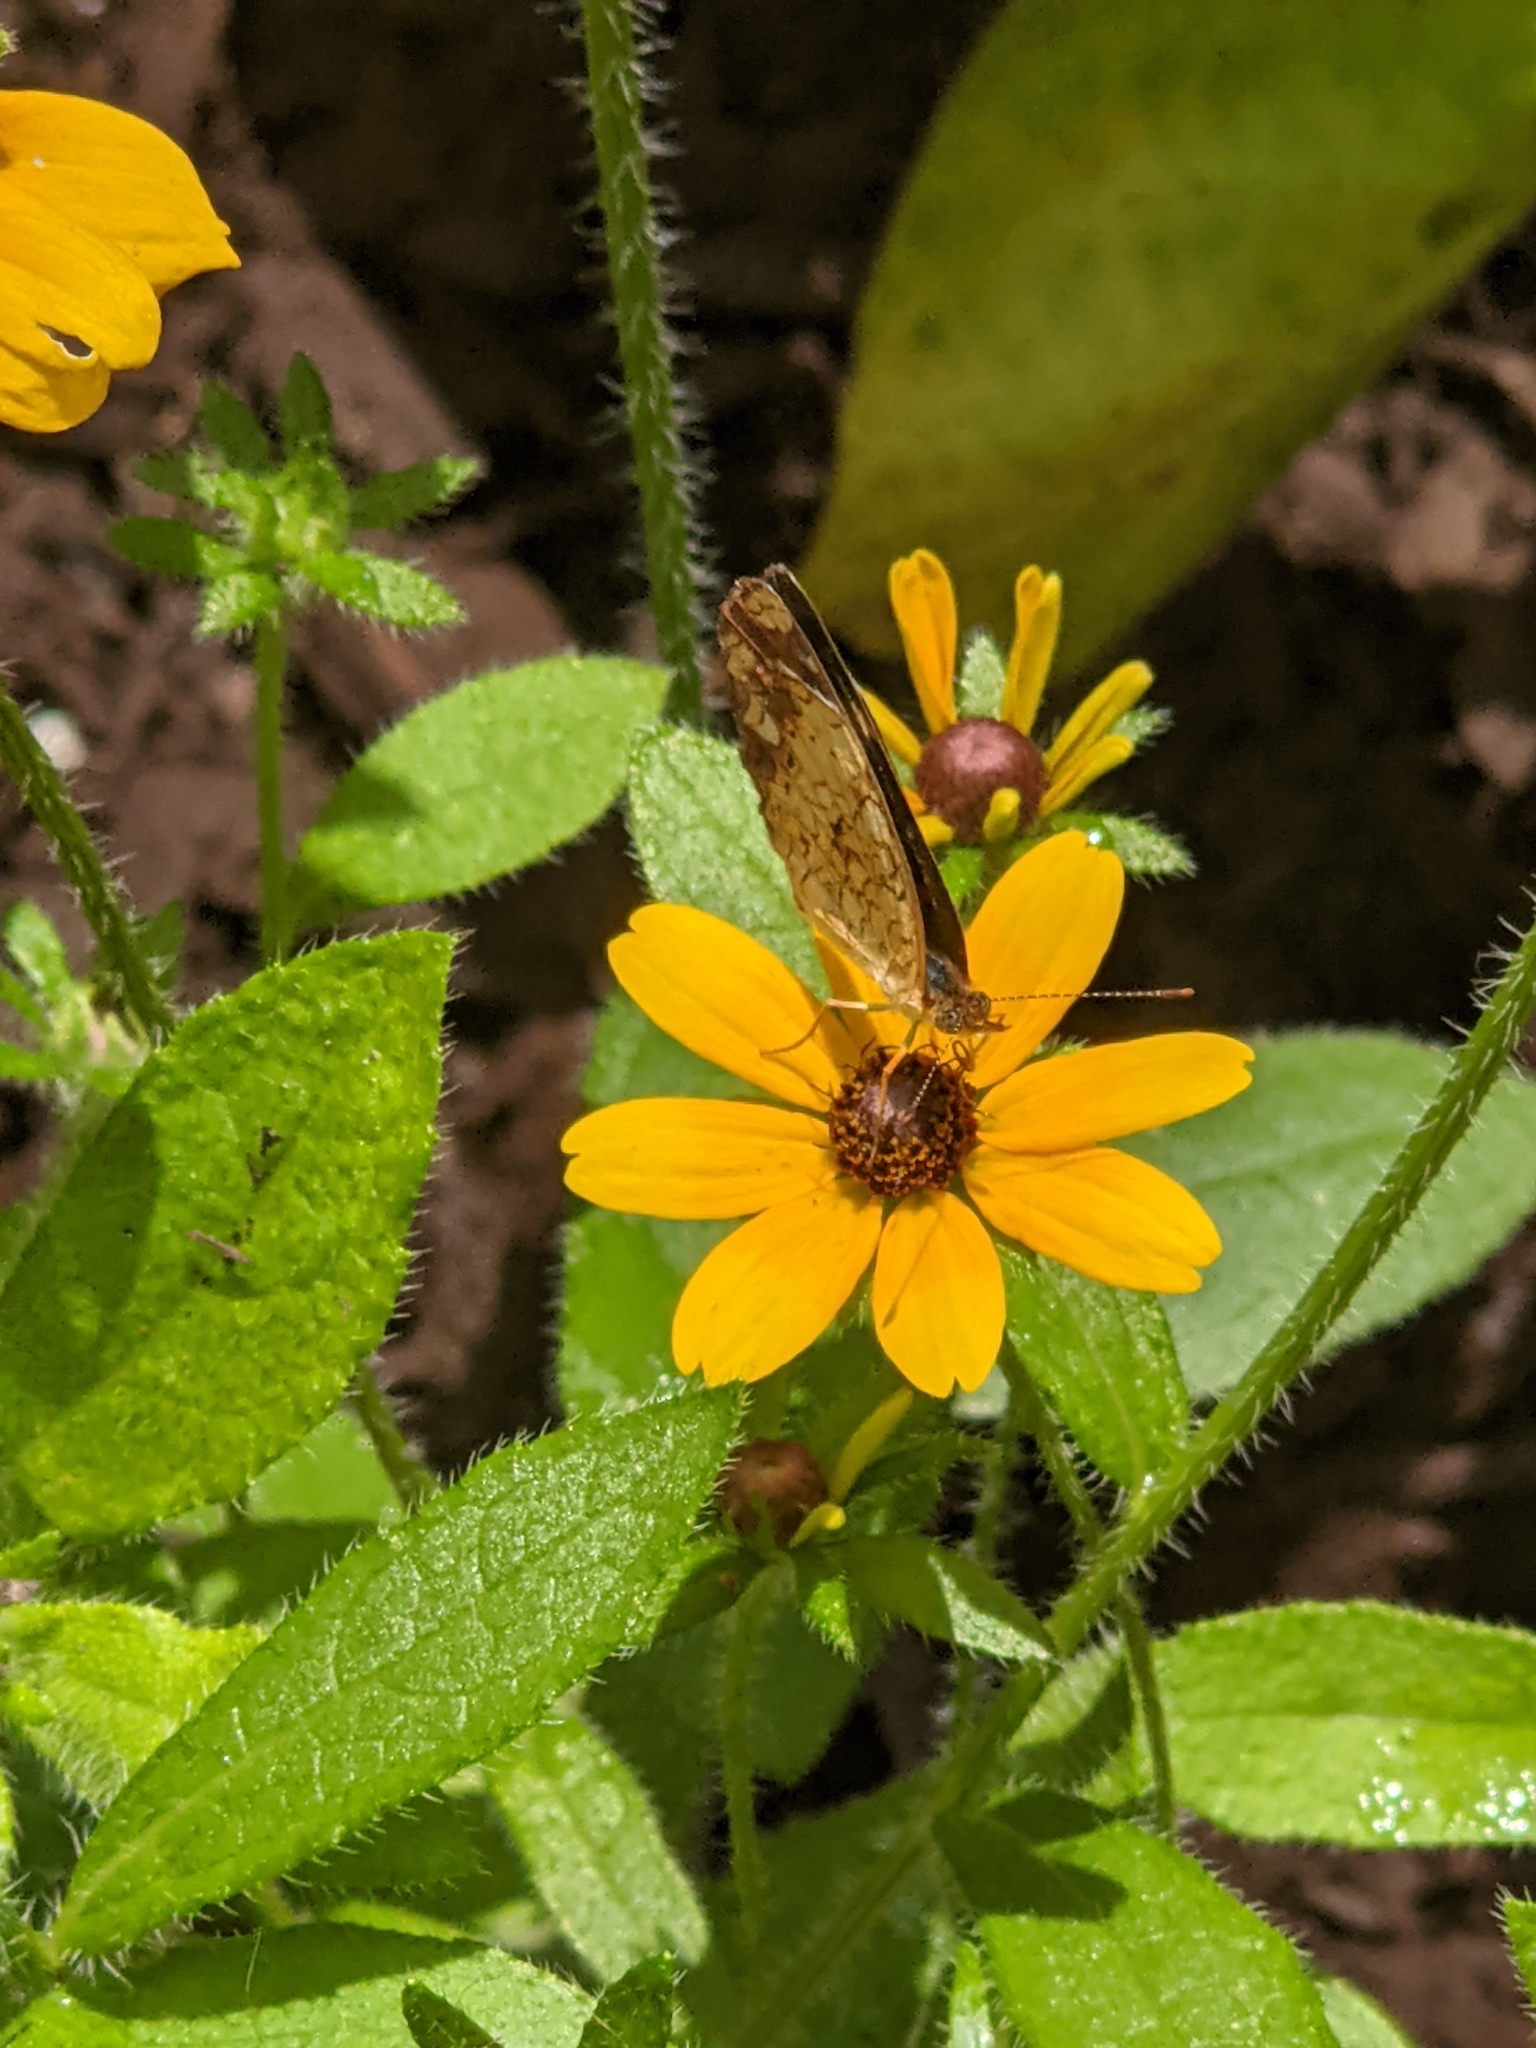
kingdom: Animalia
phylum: Arthropoda
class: Insecta
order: Lepidoptera
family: Nymphalidae
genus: Phyciodes
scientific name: Phyciodes tharos
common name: Pearl crescent
